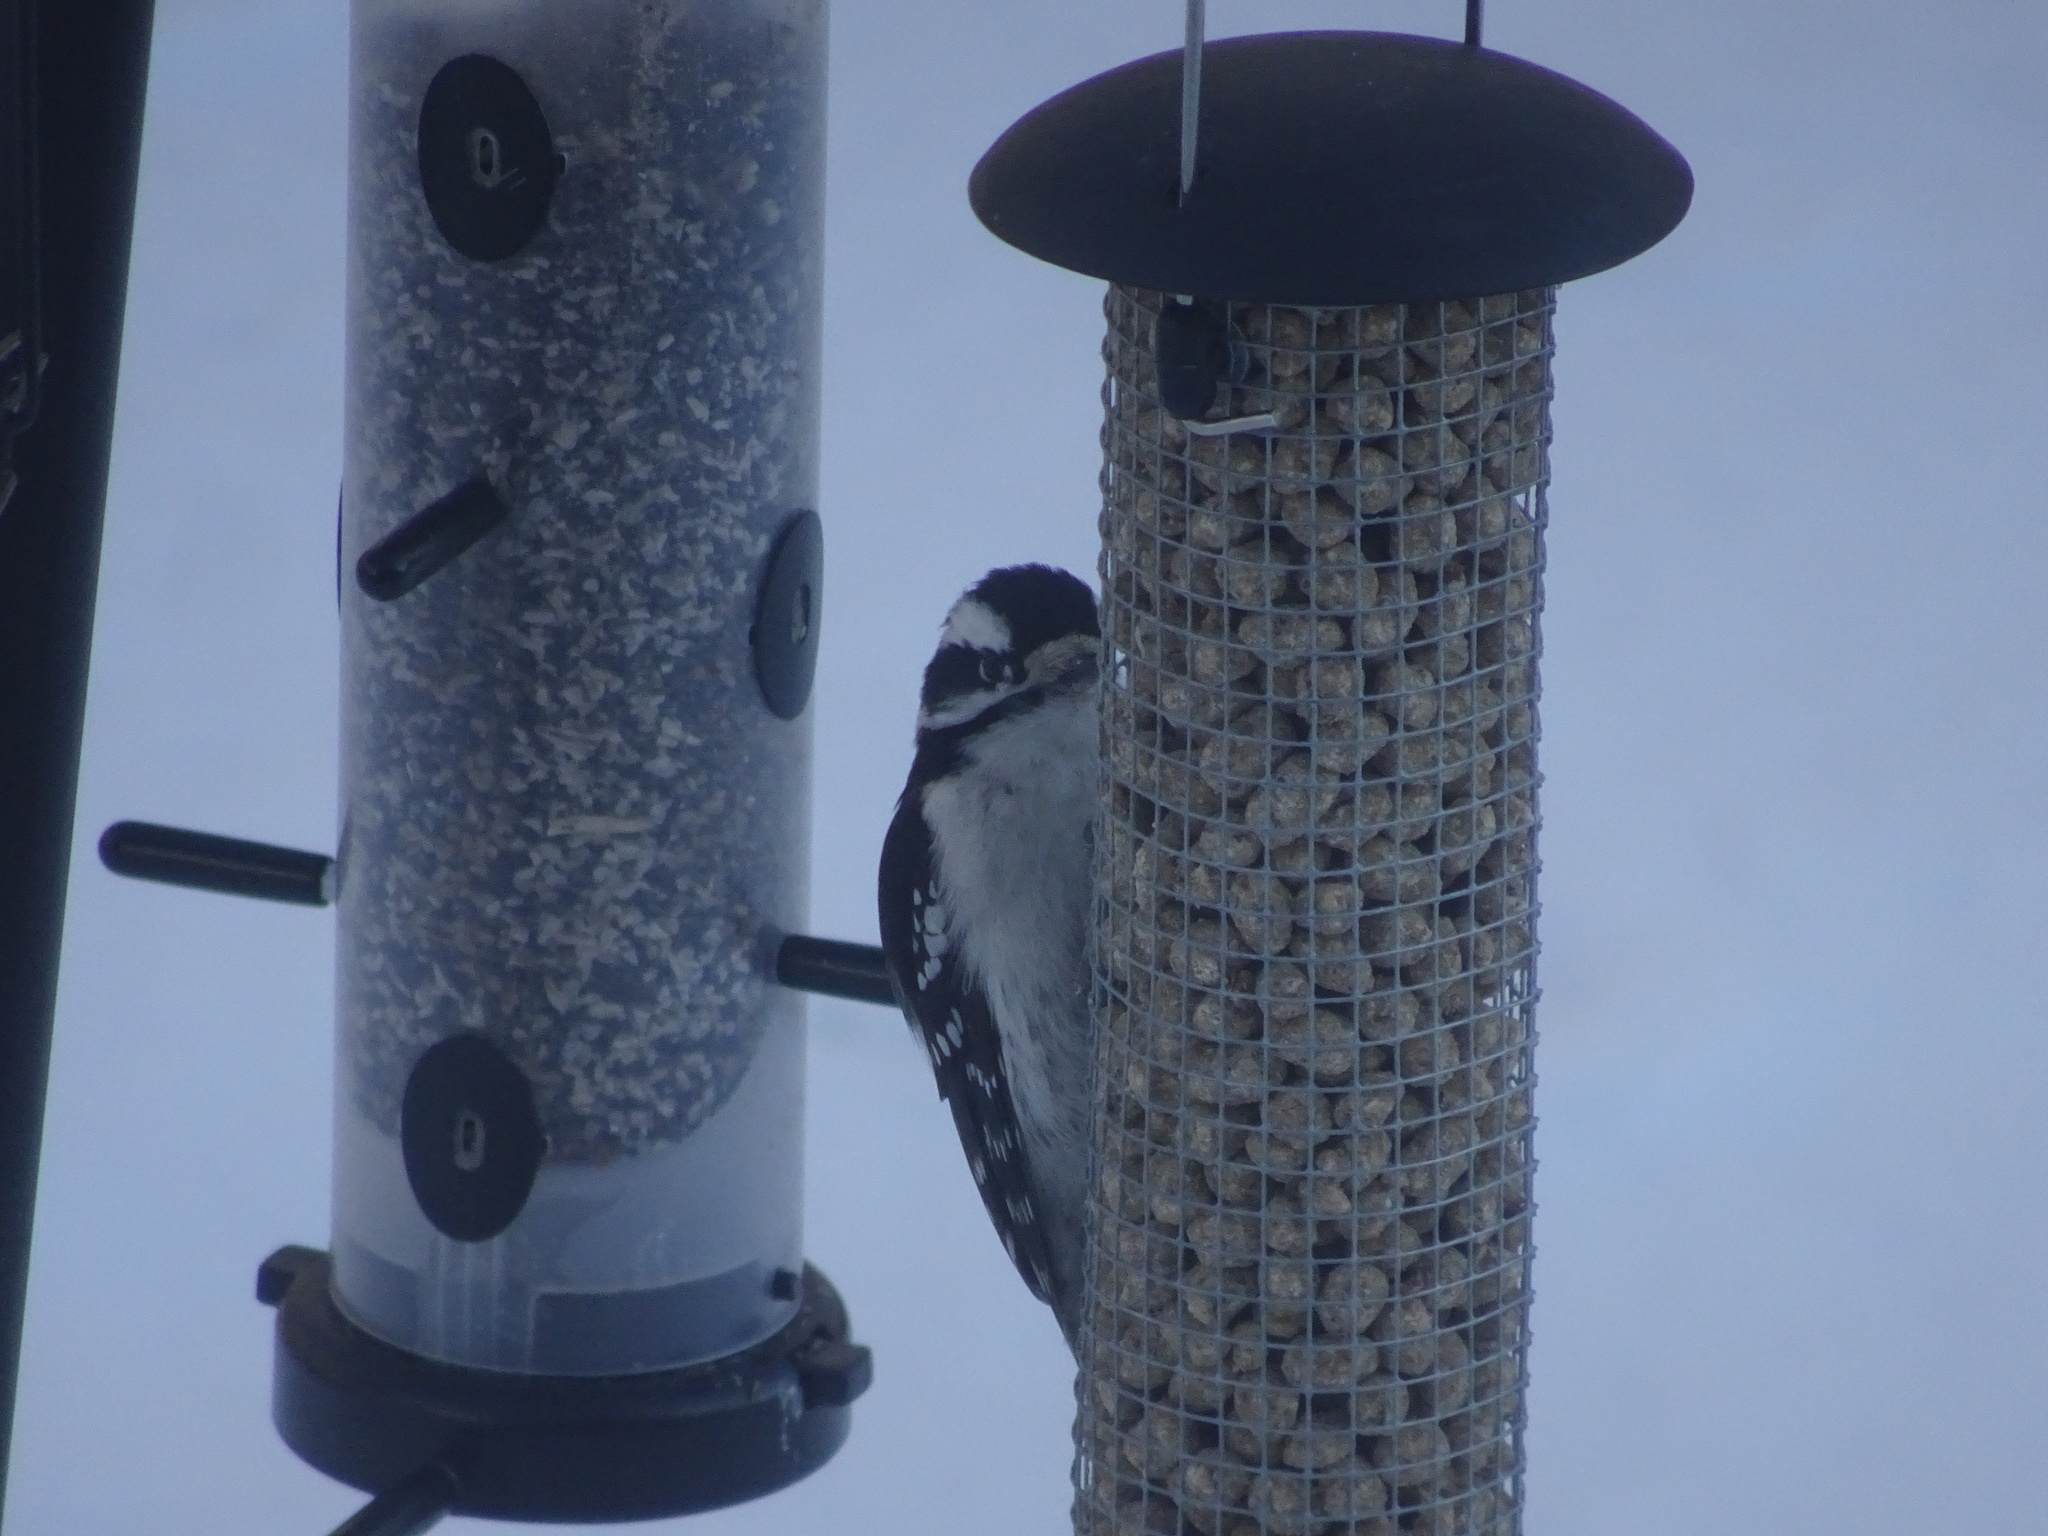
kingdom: Animalia
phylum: Chordata
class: Aves
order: Piciformes
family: Picidae
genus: Dryobates
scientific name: Dryobates pubescens
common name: Downy woodpecker
